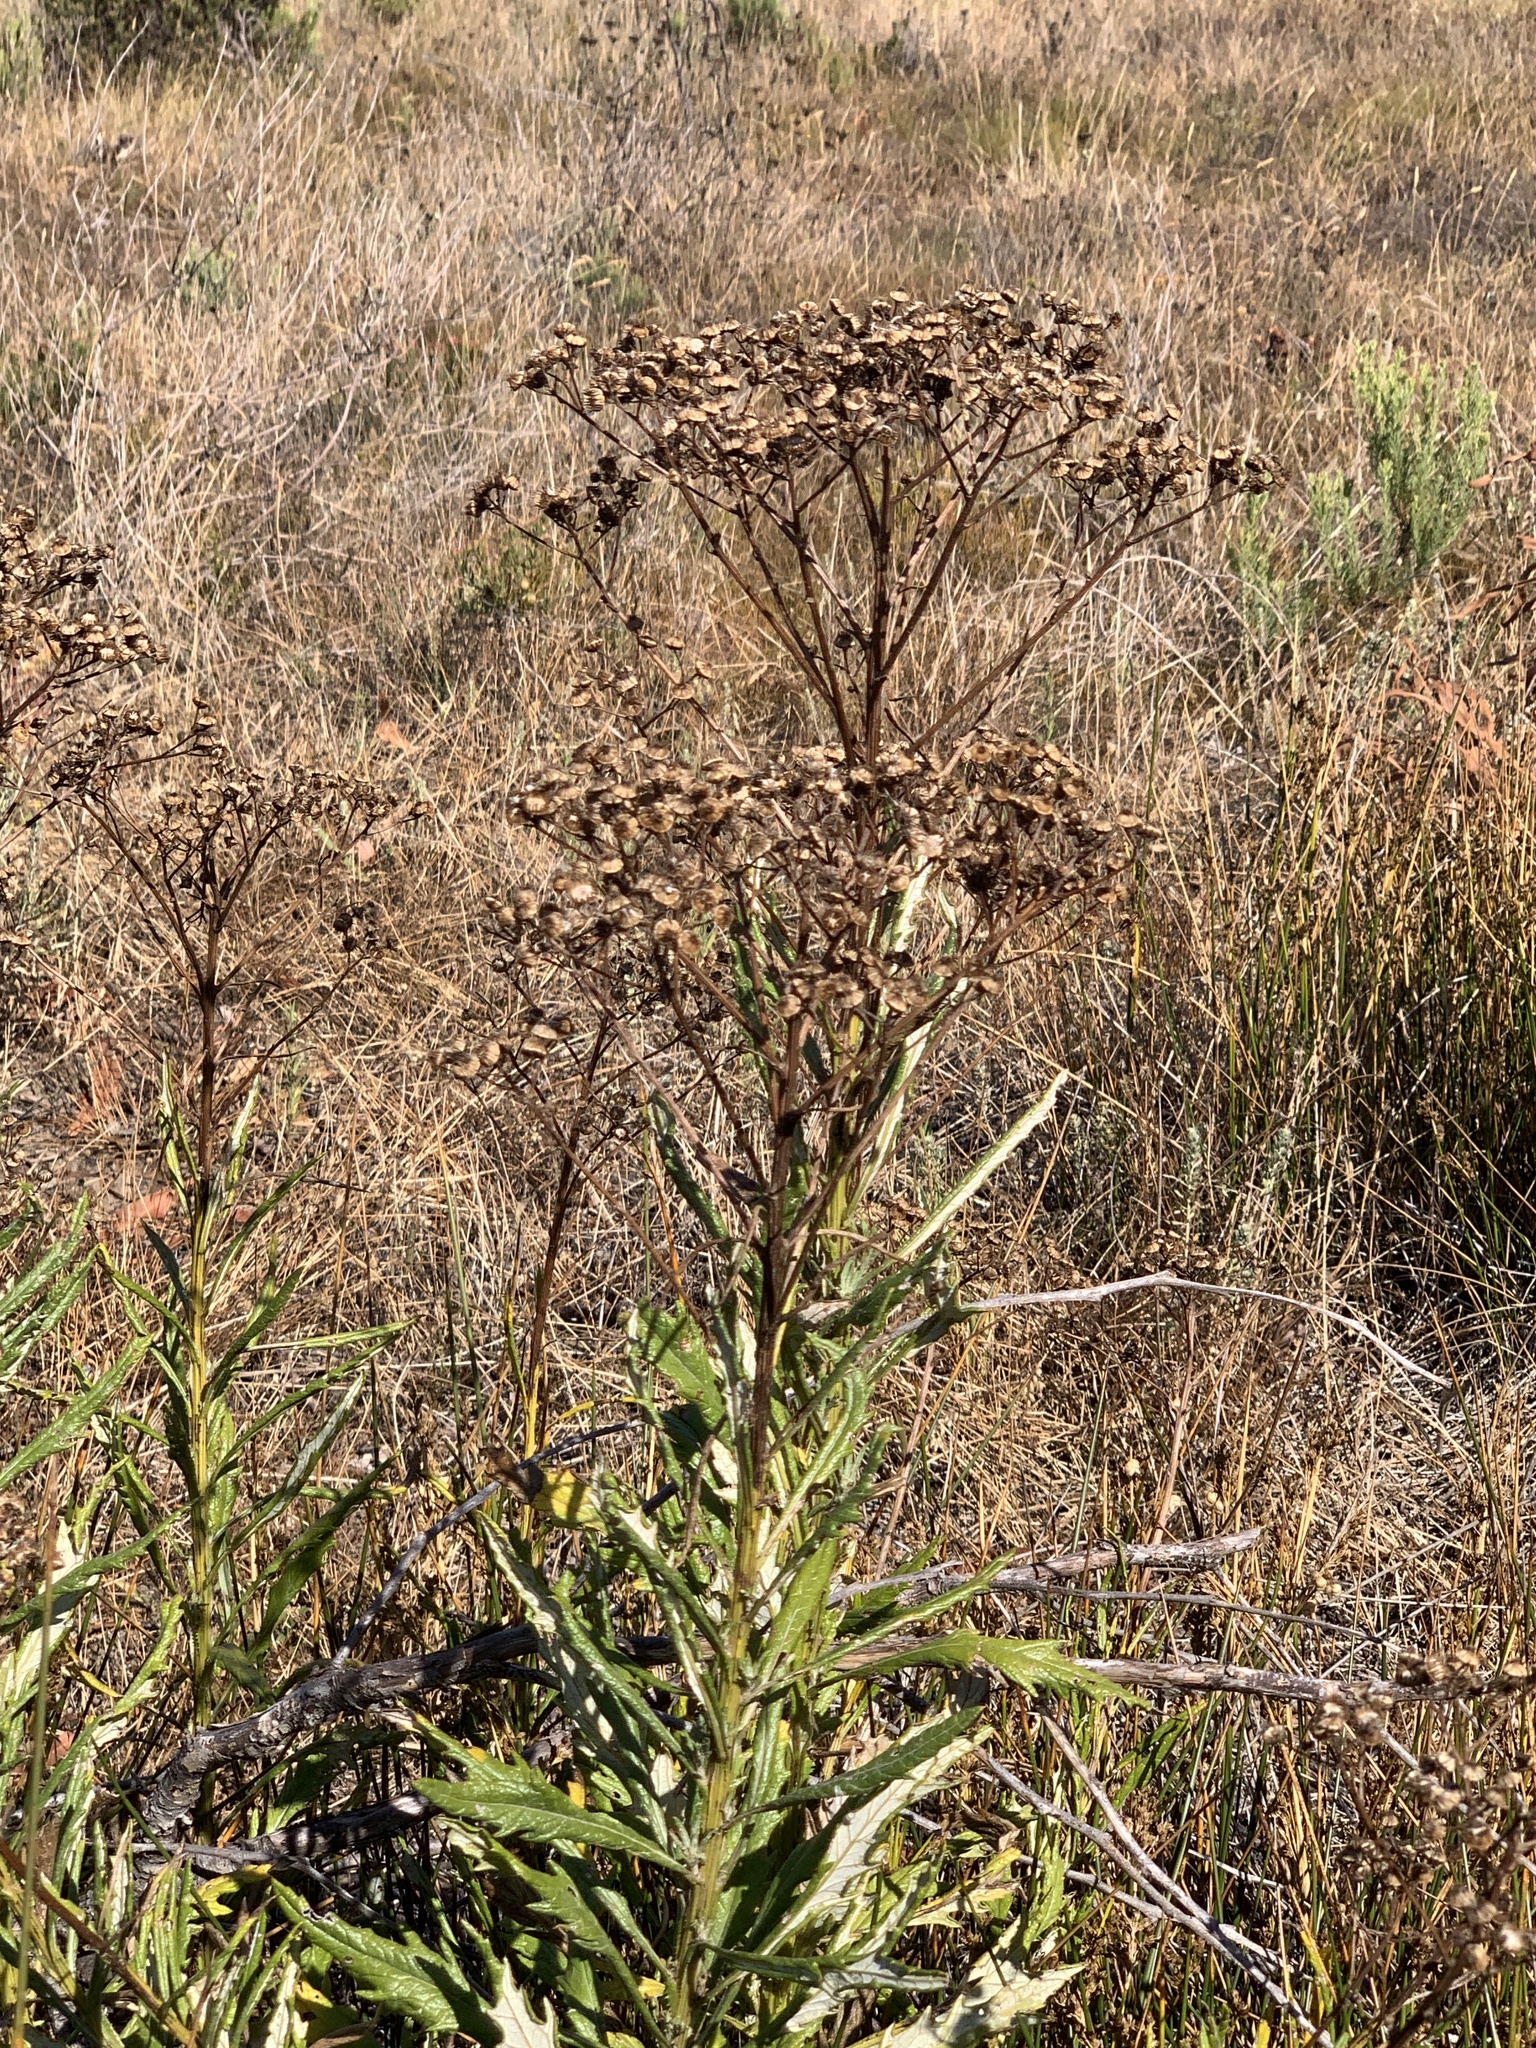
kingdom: Plantae
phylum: Tracheophyta
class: Magnoliopsida
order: Asterales
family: Asteraceae
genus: Senecio
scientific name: Senecio pterophorus
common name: Shoddy ragwort
